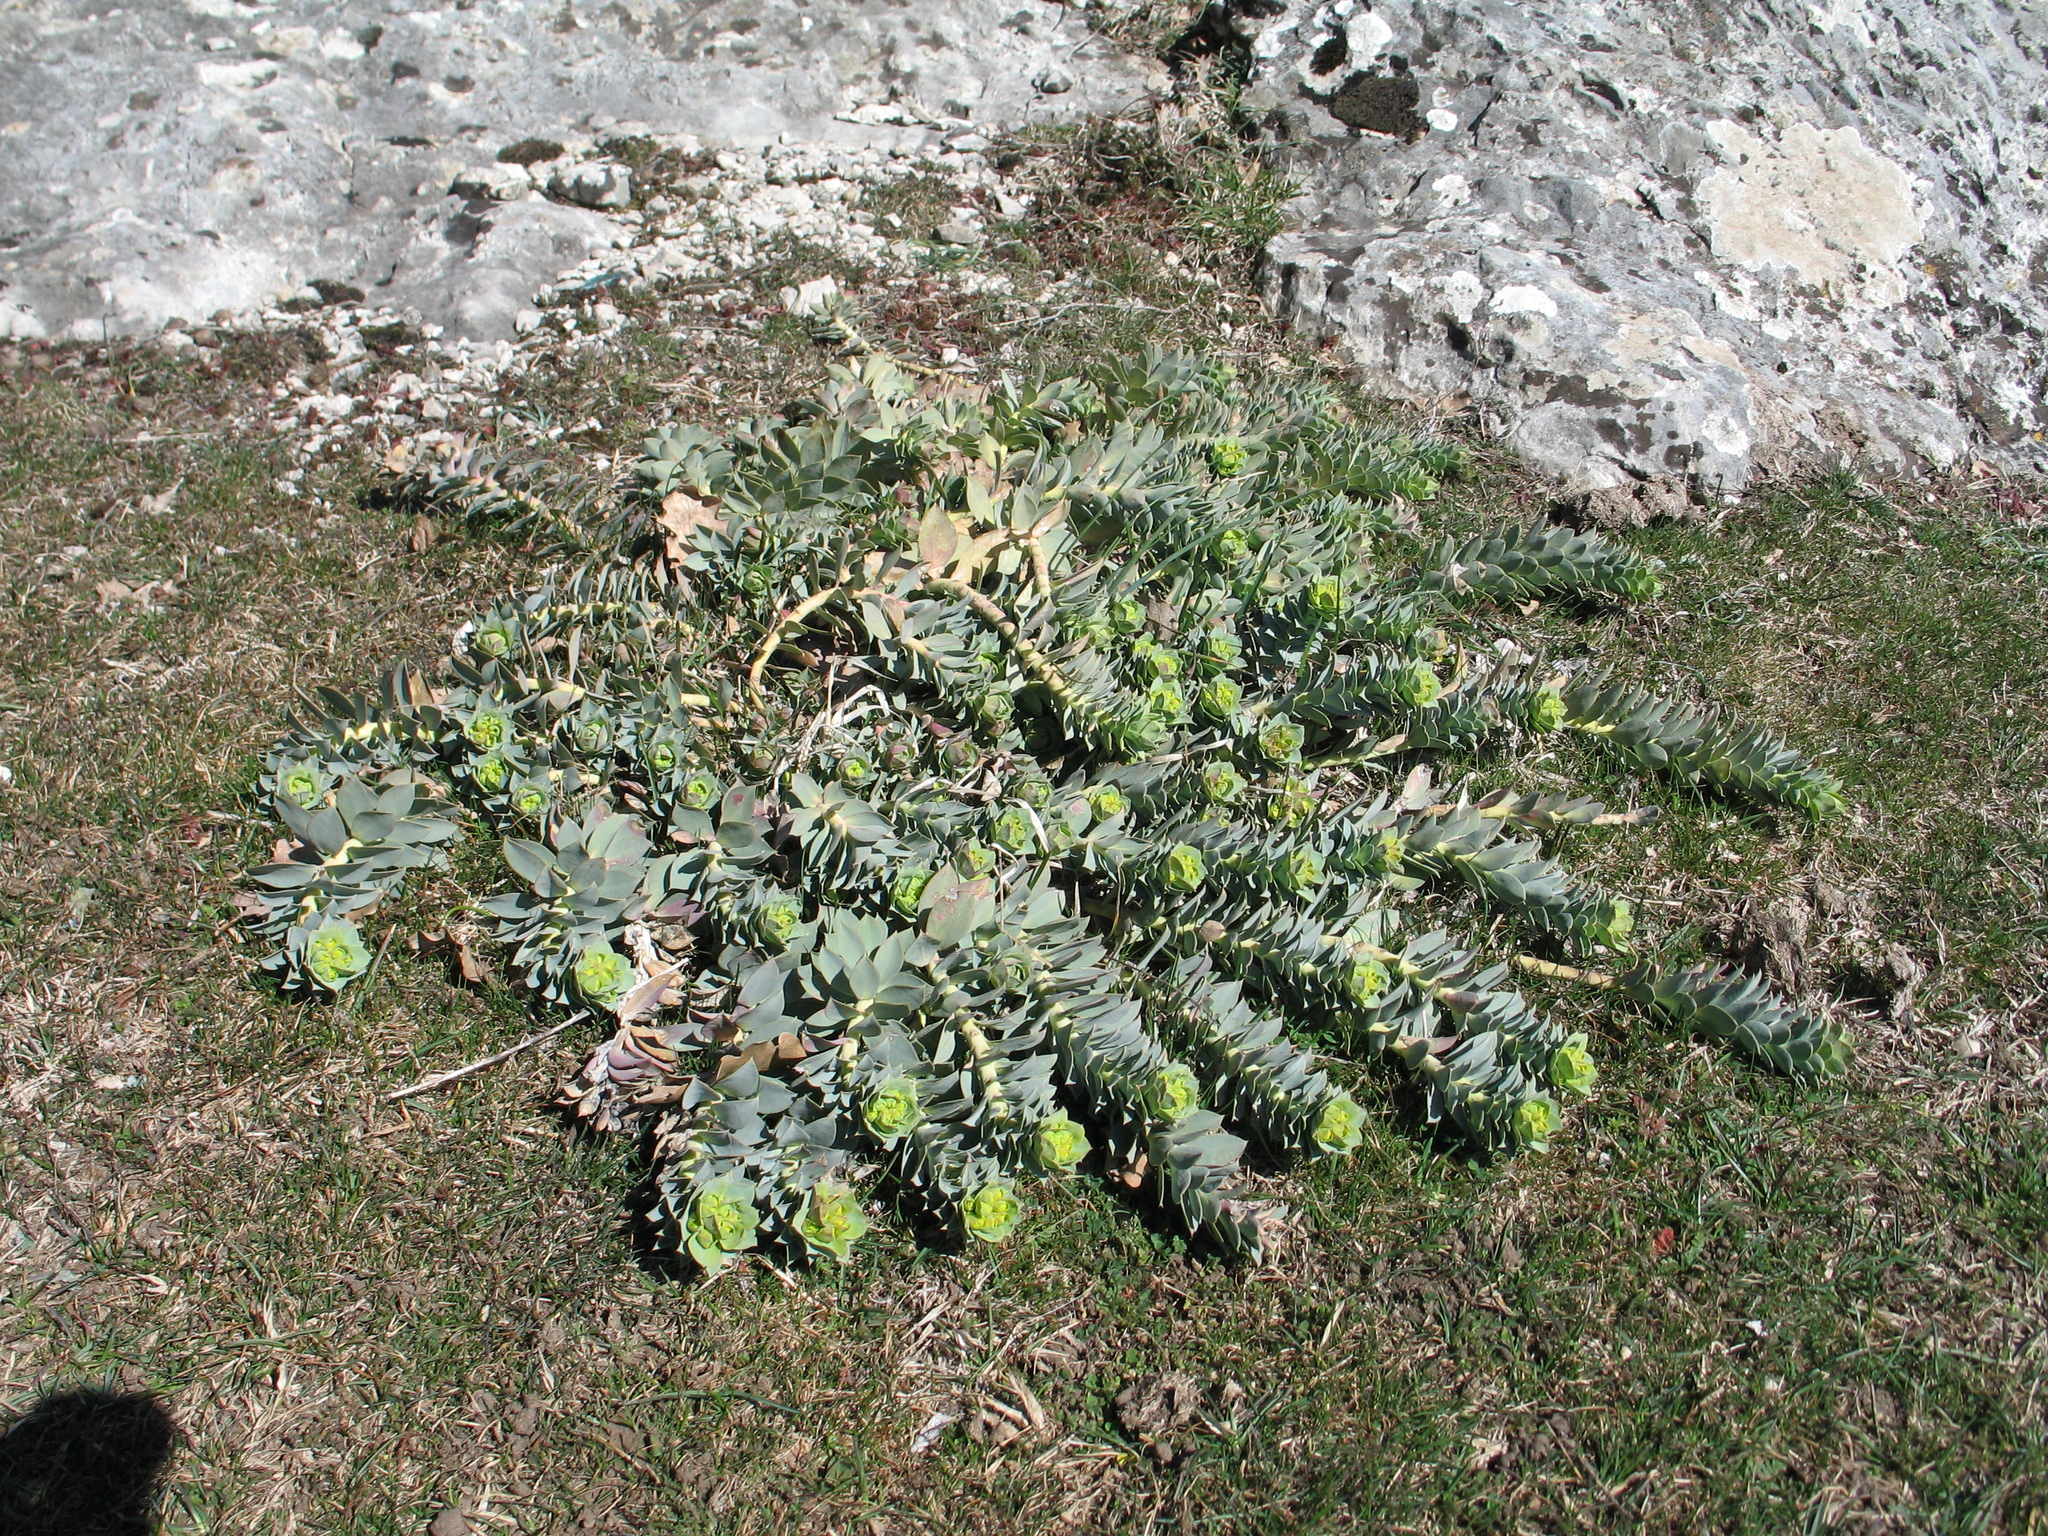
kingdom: Plantae
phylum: Tracheophyta
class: Magnoliopsida
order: Malpighiales
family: Euphorbiaceae
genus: Euphorbia
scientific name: Euphorbia myrsinites
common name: Myrtle spurge
